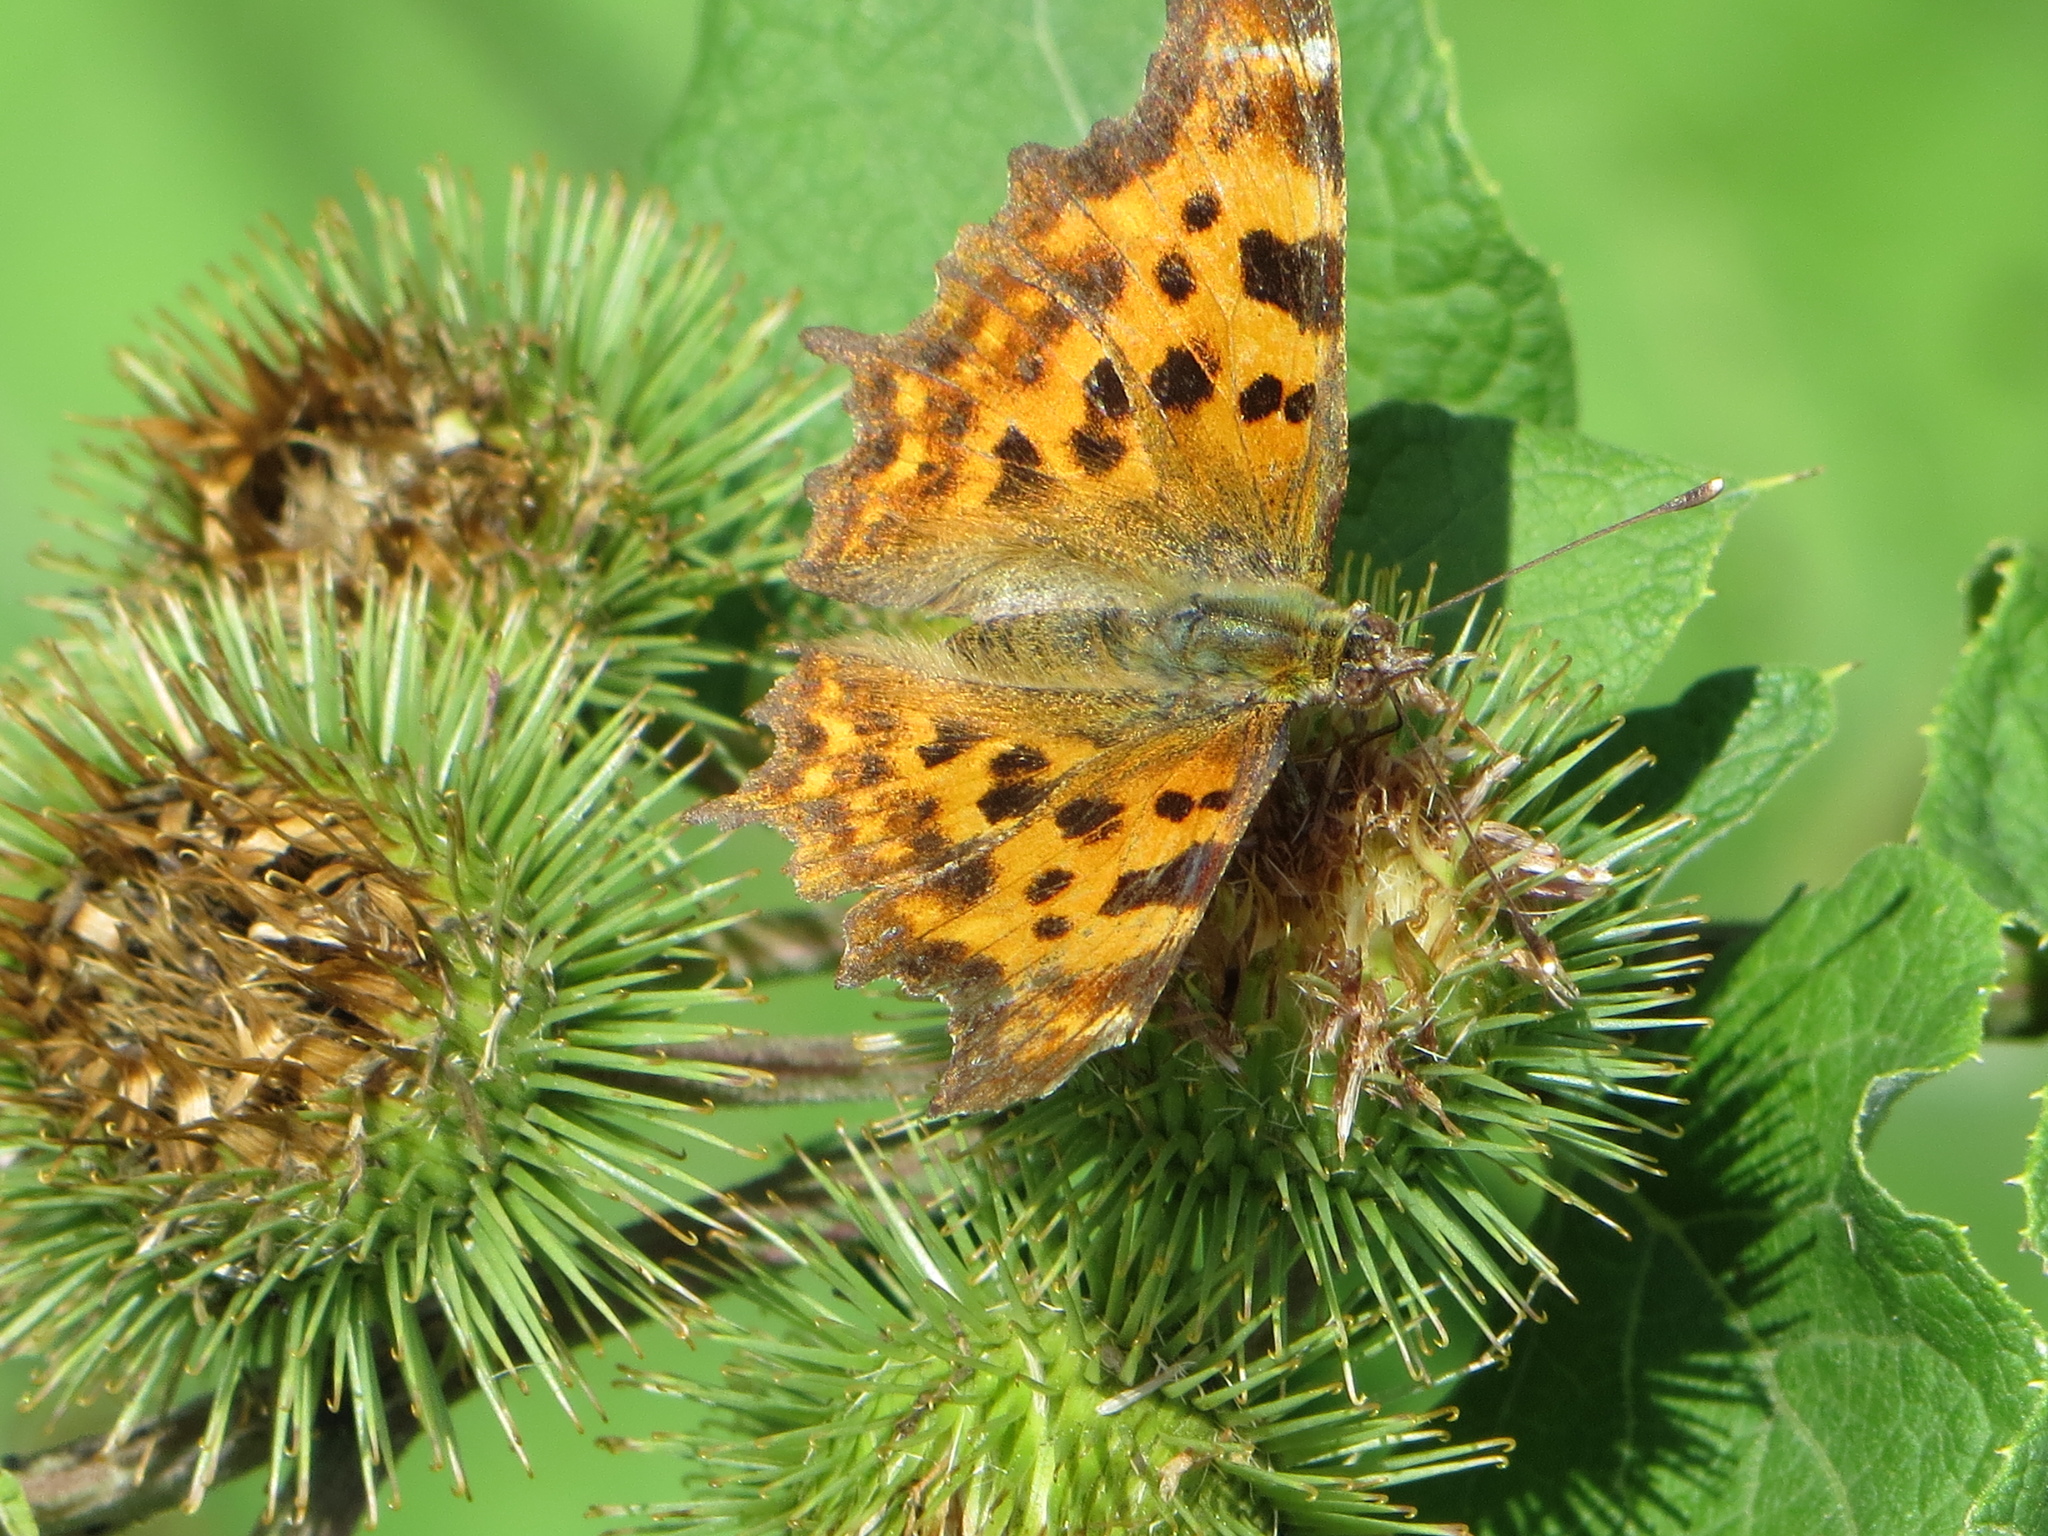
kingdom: Animalia
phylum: Arthropoda
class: Insecta
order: Lepidoptera
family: Nymphalidae
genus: Polygonia
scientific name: Polygonia c-album
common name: Comma
